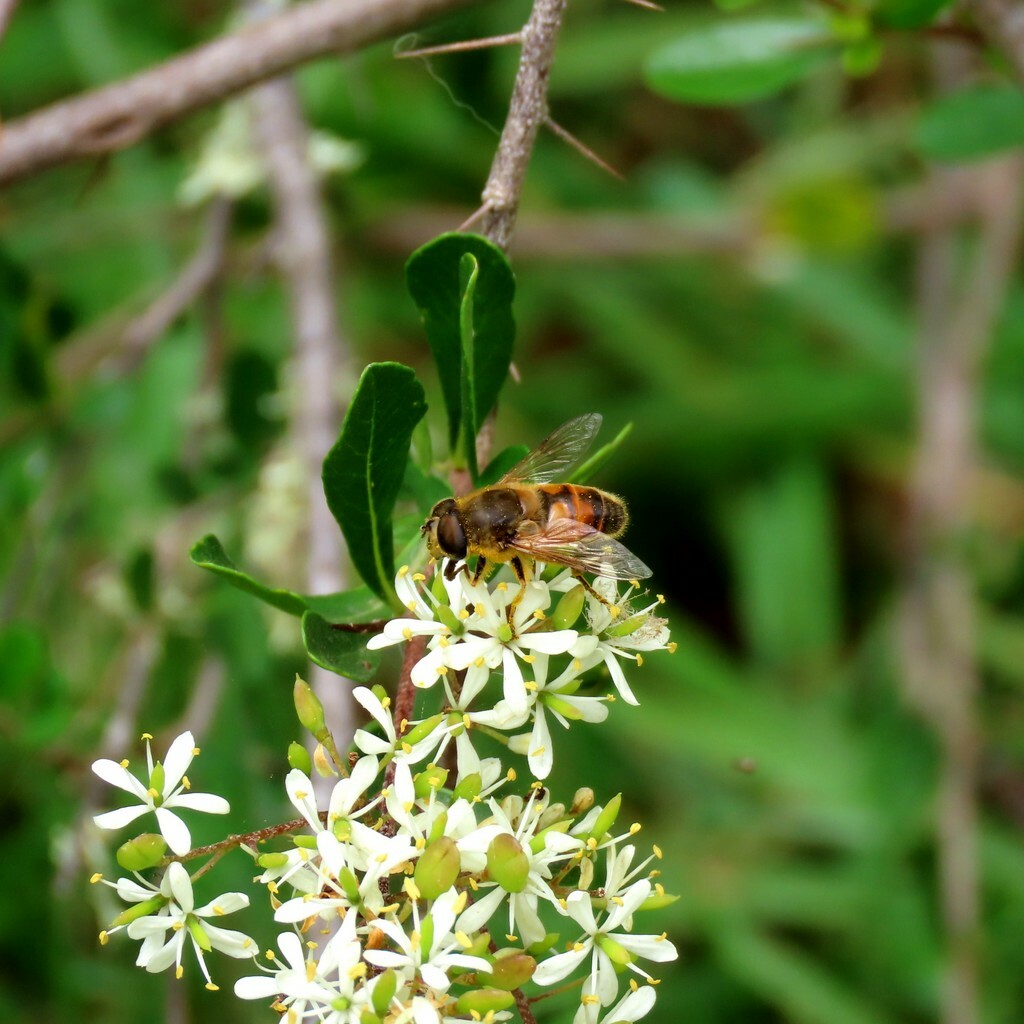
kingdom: Animalia
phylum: Arthropoda
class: Insecta
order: Diptera
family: Syrphidae
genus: Eristalis
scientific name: Eristalis tenax
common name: Drone fly
